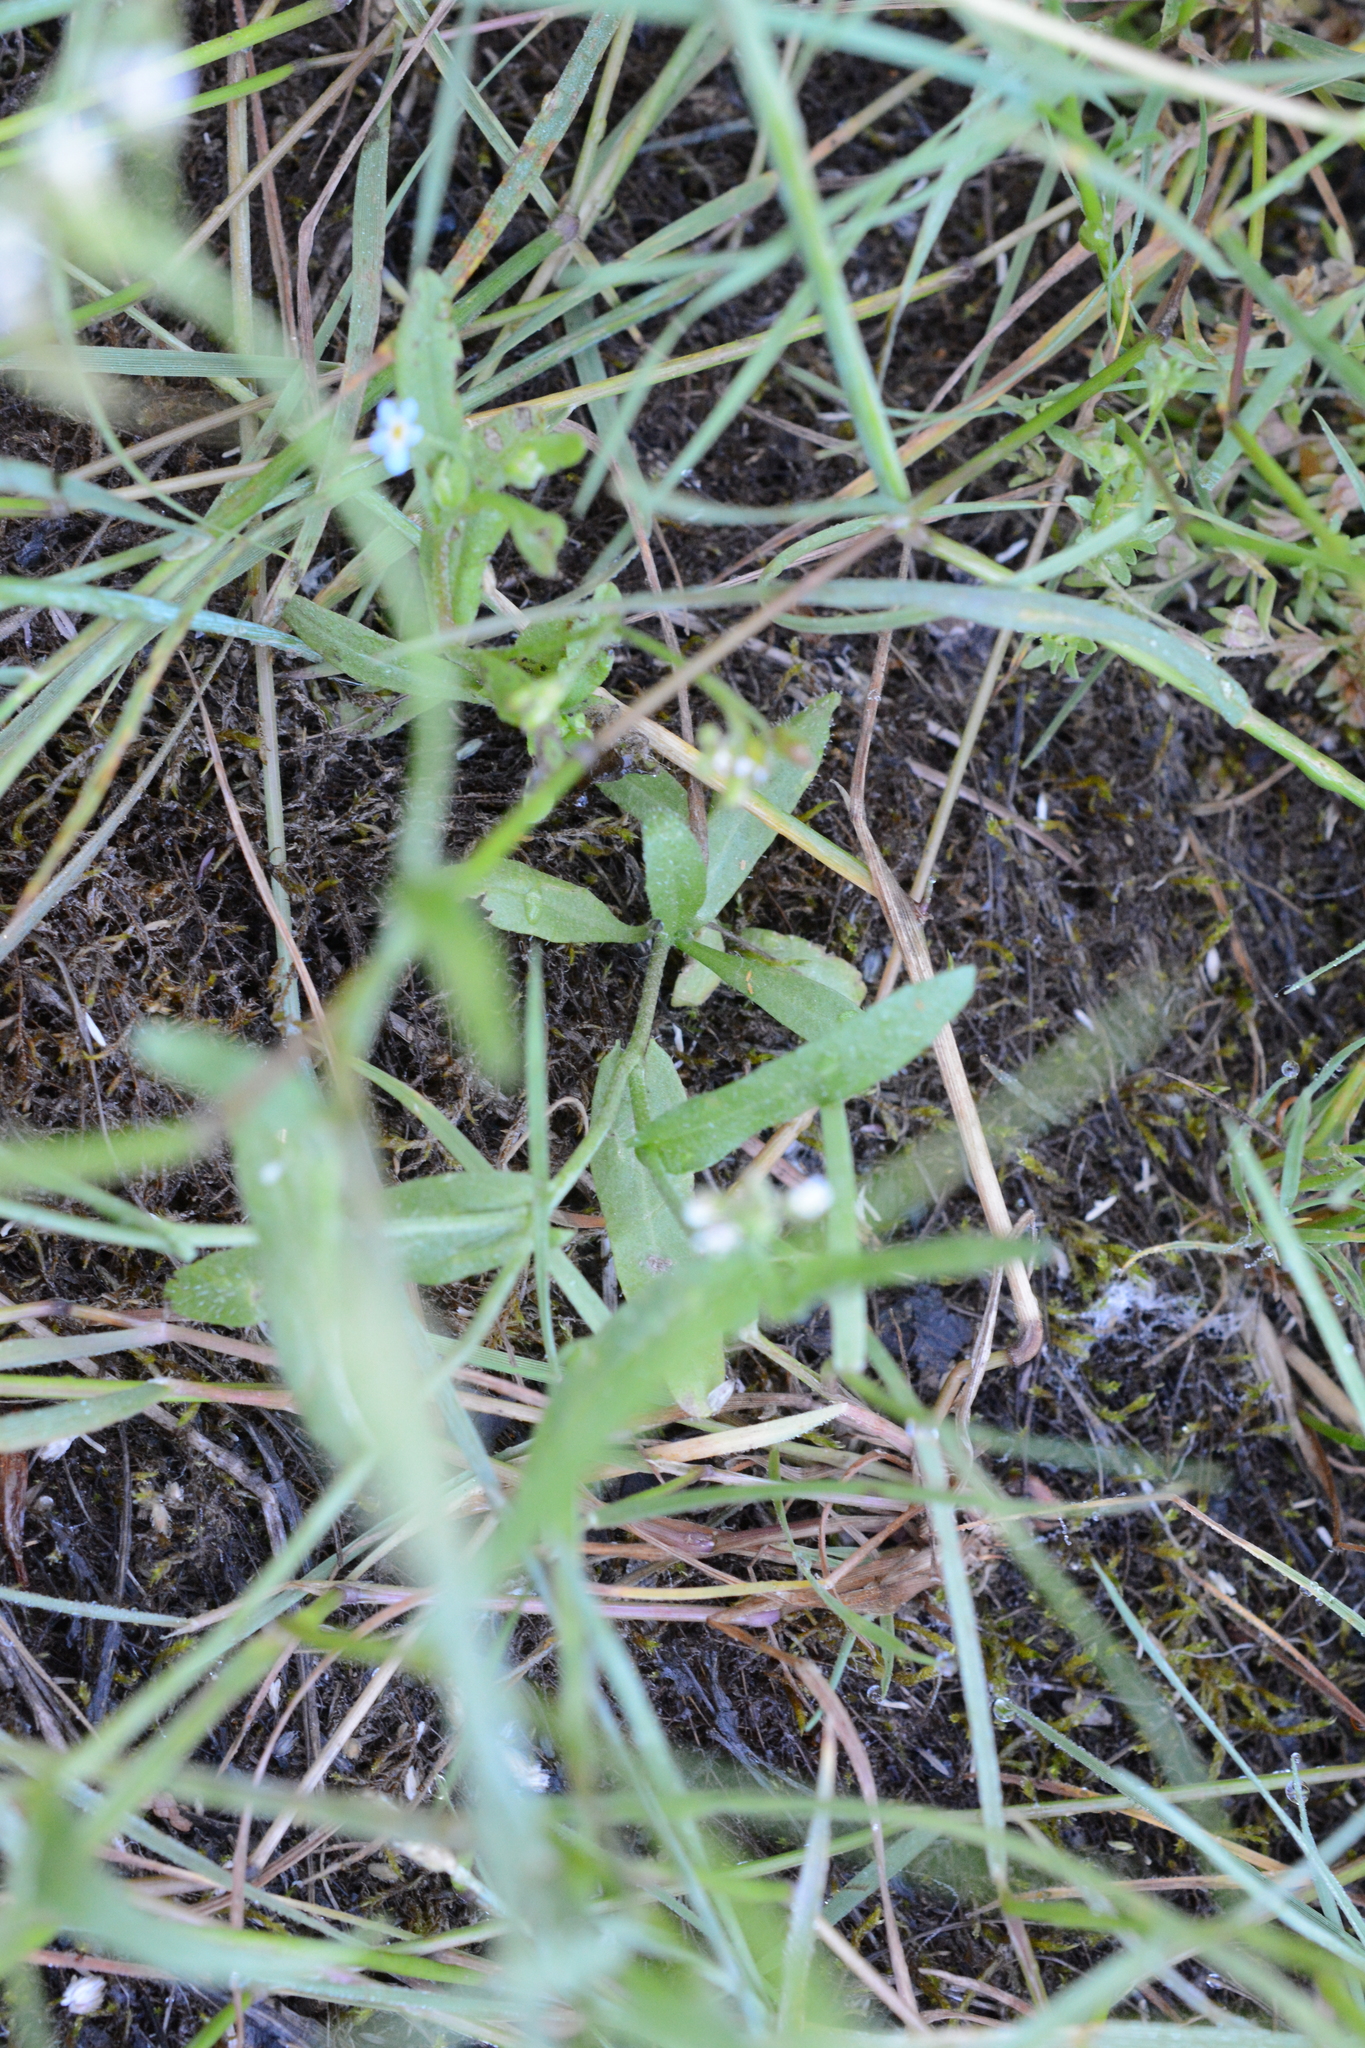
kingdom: Plantae
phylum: Tracheophyta
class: Magnoliopsida
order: Brassicales
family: Brassicaceae
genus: Capsella
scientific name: Capsella bursa-pastoris
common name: Shepherd's purse
